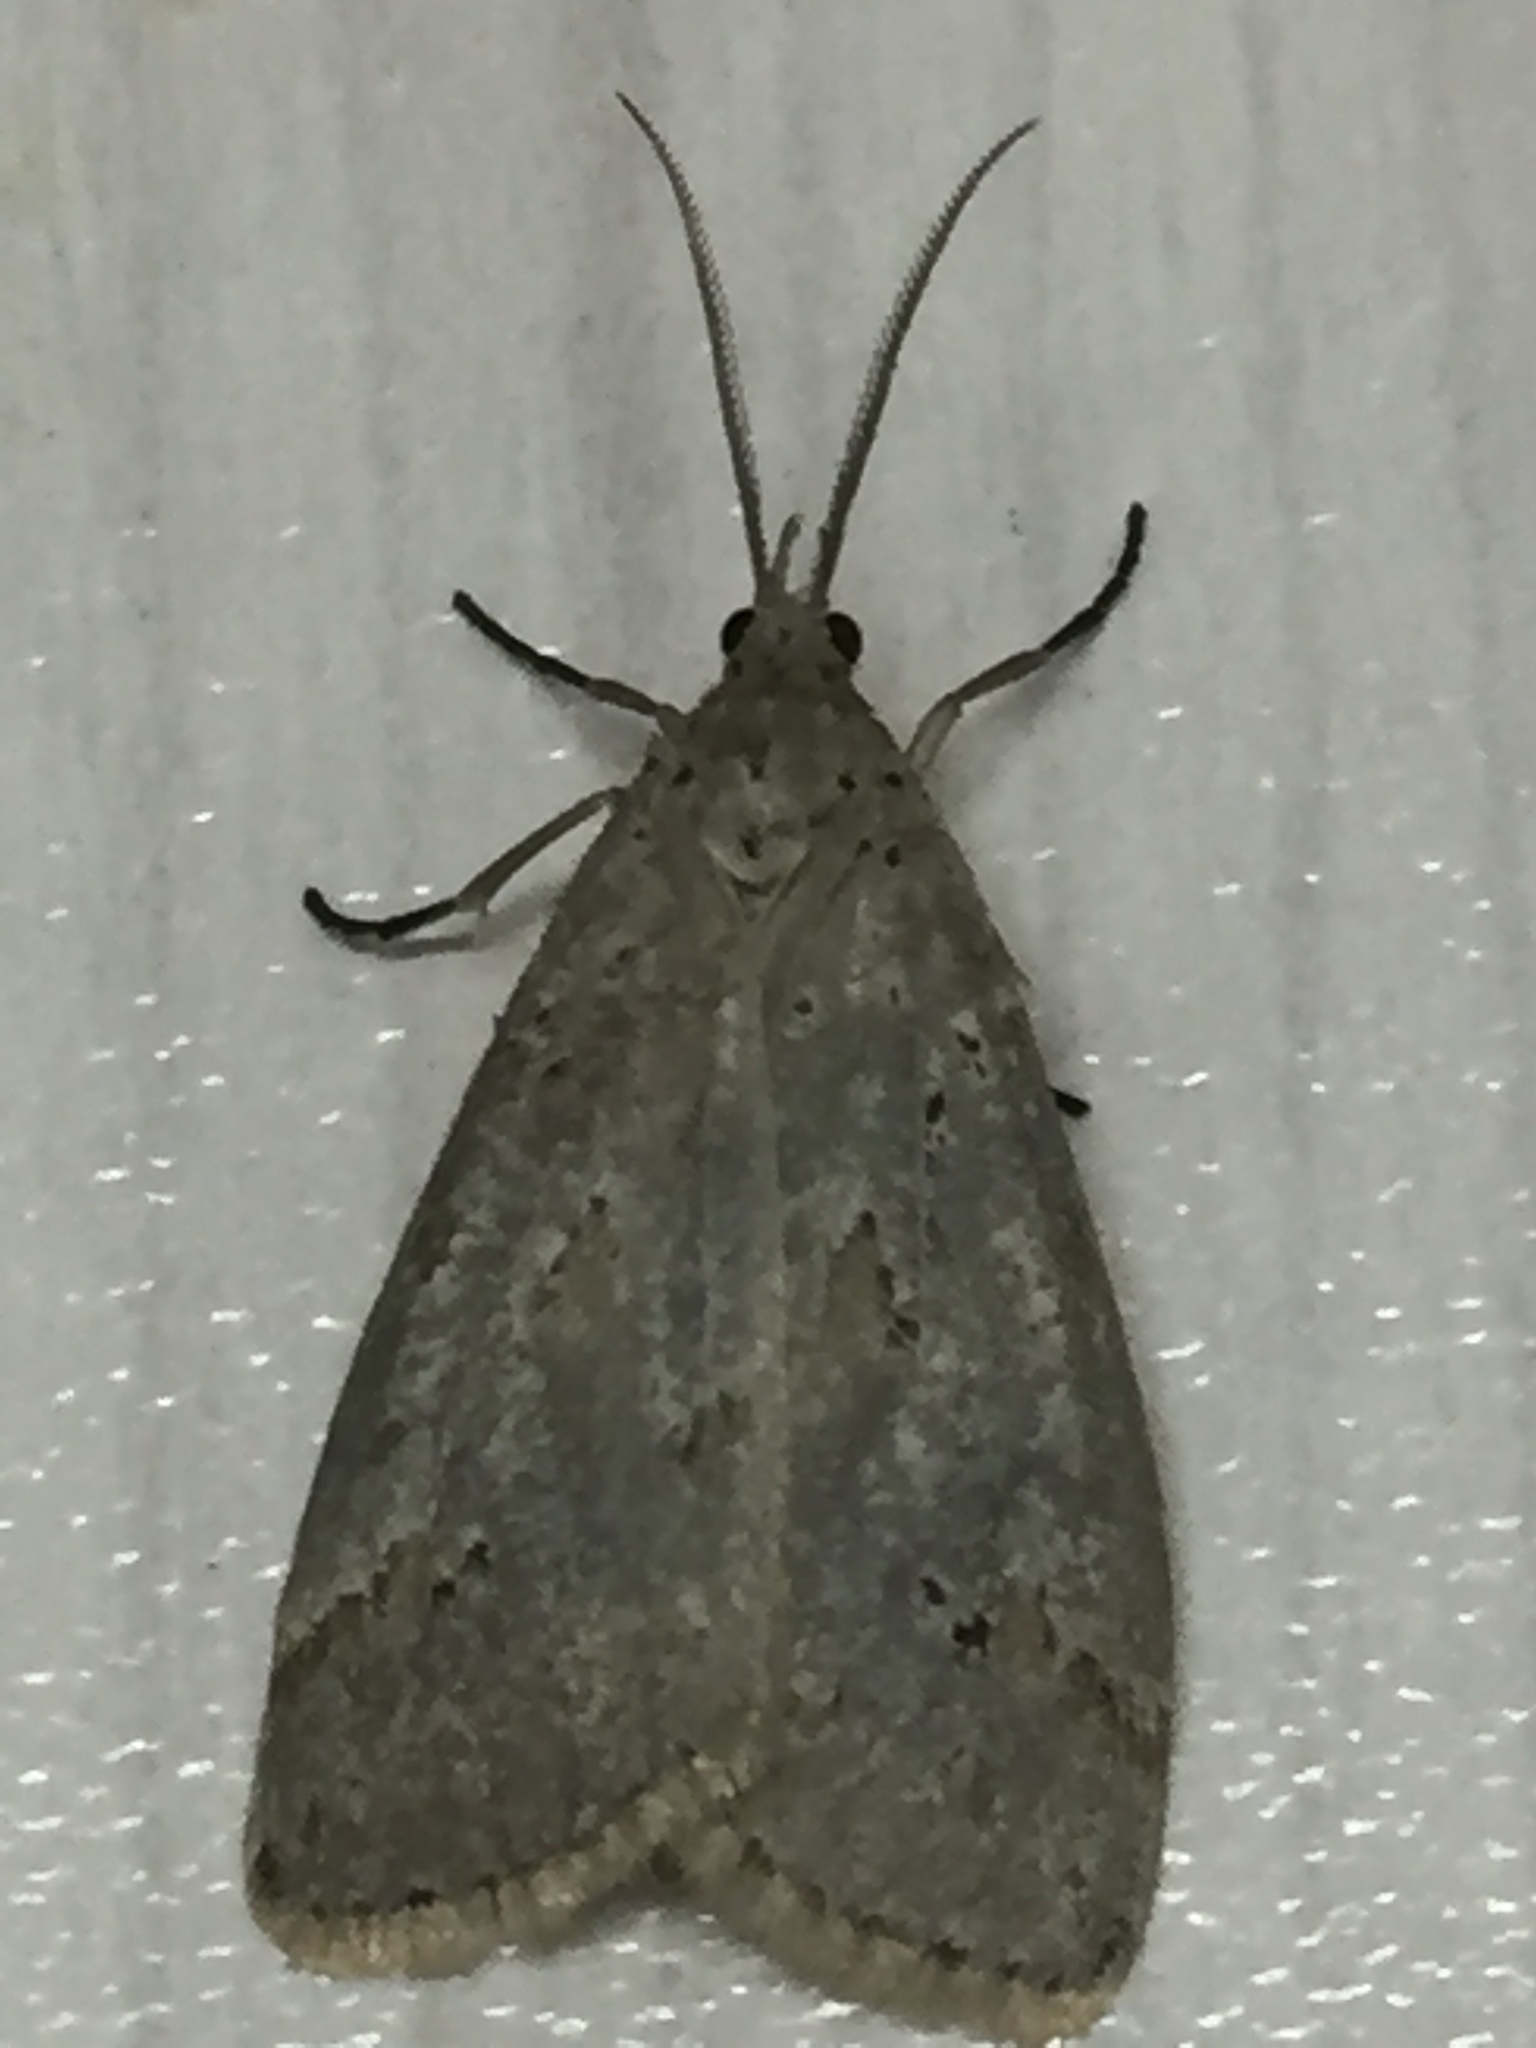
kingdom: Animalia
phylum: Arthropoda
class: Insecta
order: Lepidoptera
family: Erebidae
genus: Galtara
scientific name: Galtara rostrata
